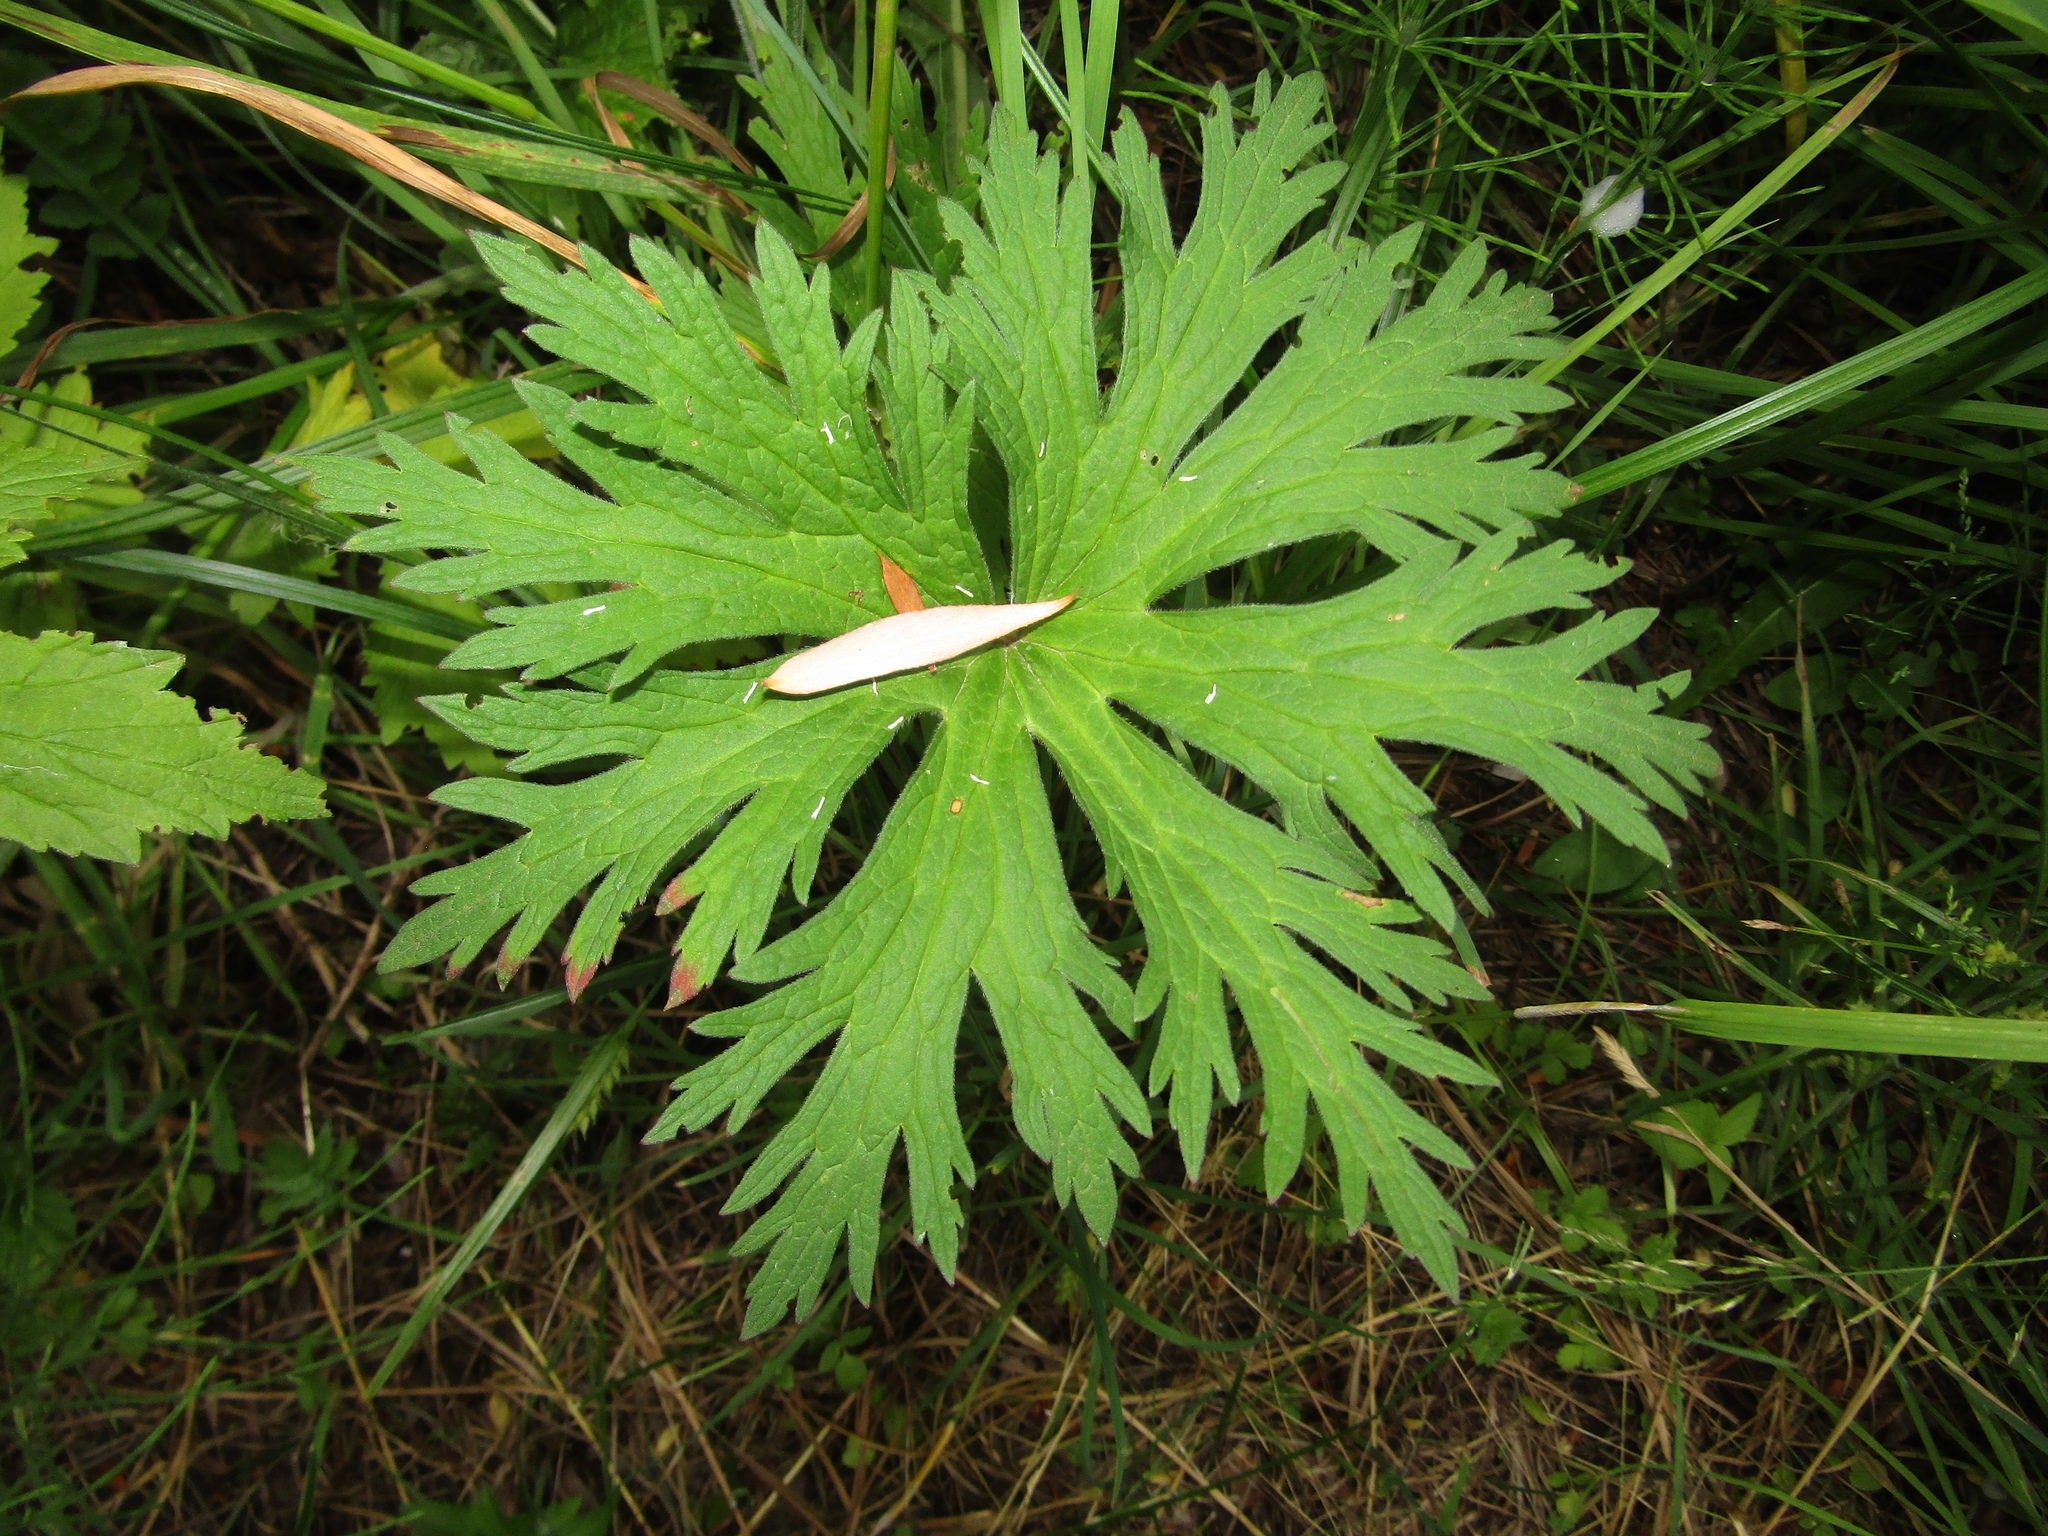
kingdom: Plantae
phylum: Tracheophyta
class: Magnoliopsida
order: Geraniales
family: Geraniaceae
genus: Geranium
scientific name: Geranium pratense
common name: Meadow crane's-bill
